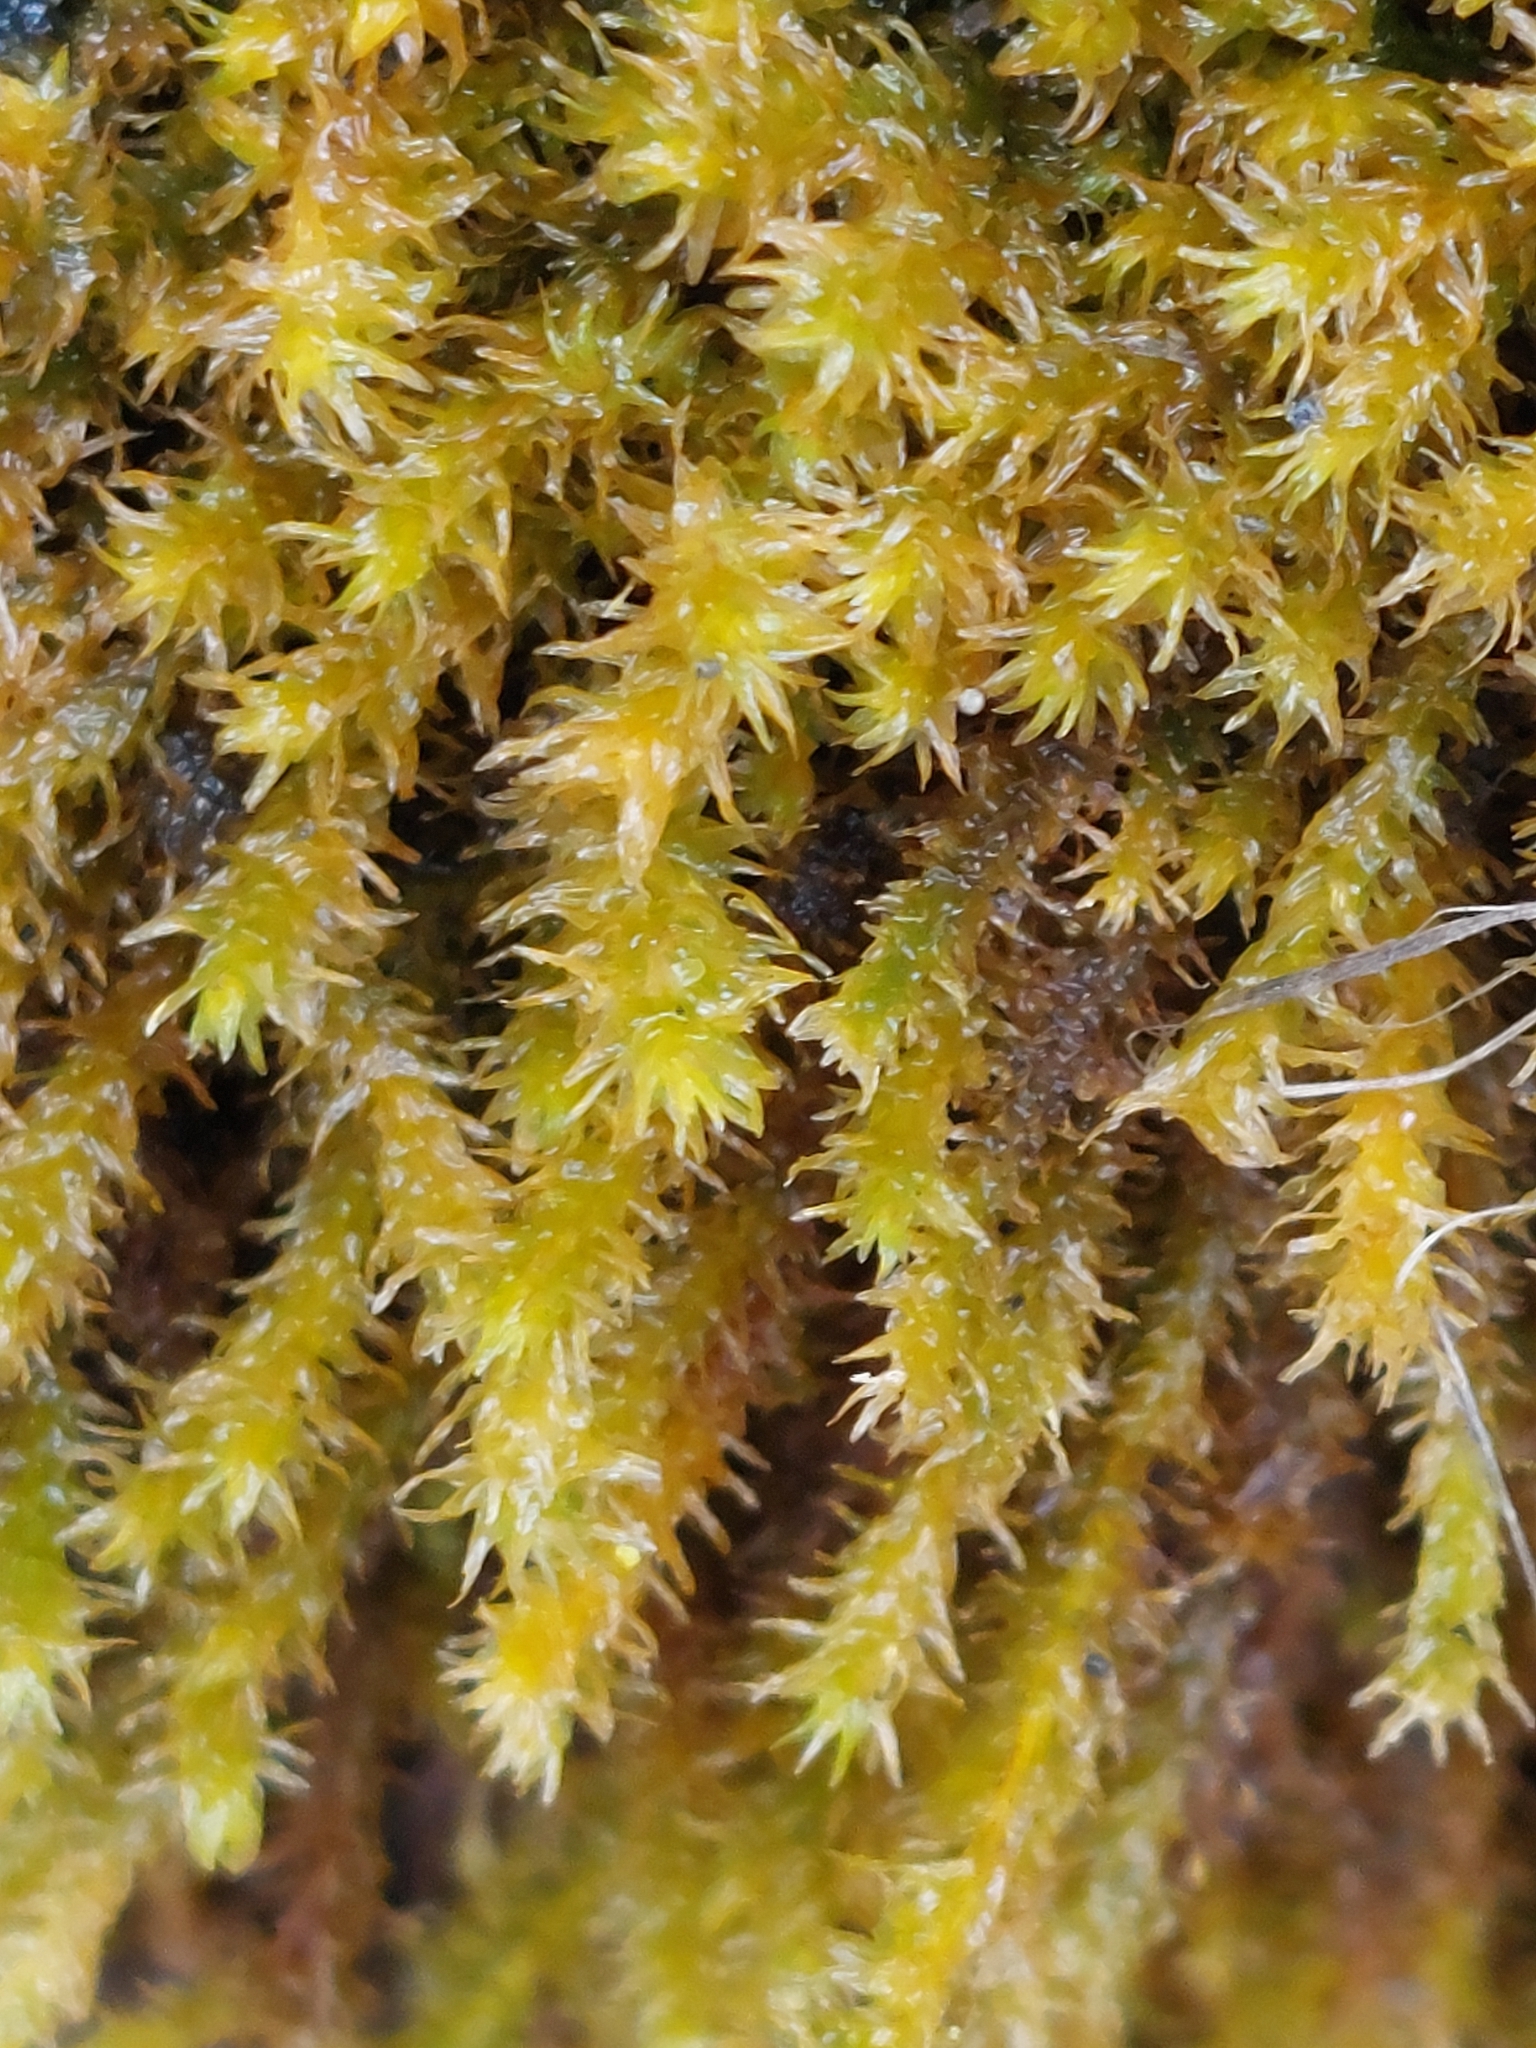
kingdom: Plantae
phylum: Bryophyta
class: Bryopsida
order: Hypnales
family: Anomodontaceae
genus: Anomodon
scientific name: Anomodon viticulosus
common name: Tall anomodon
